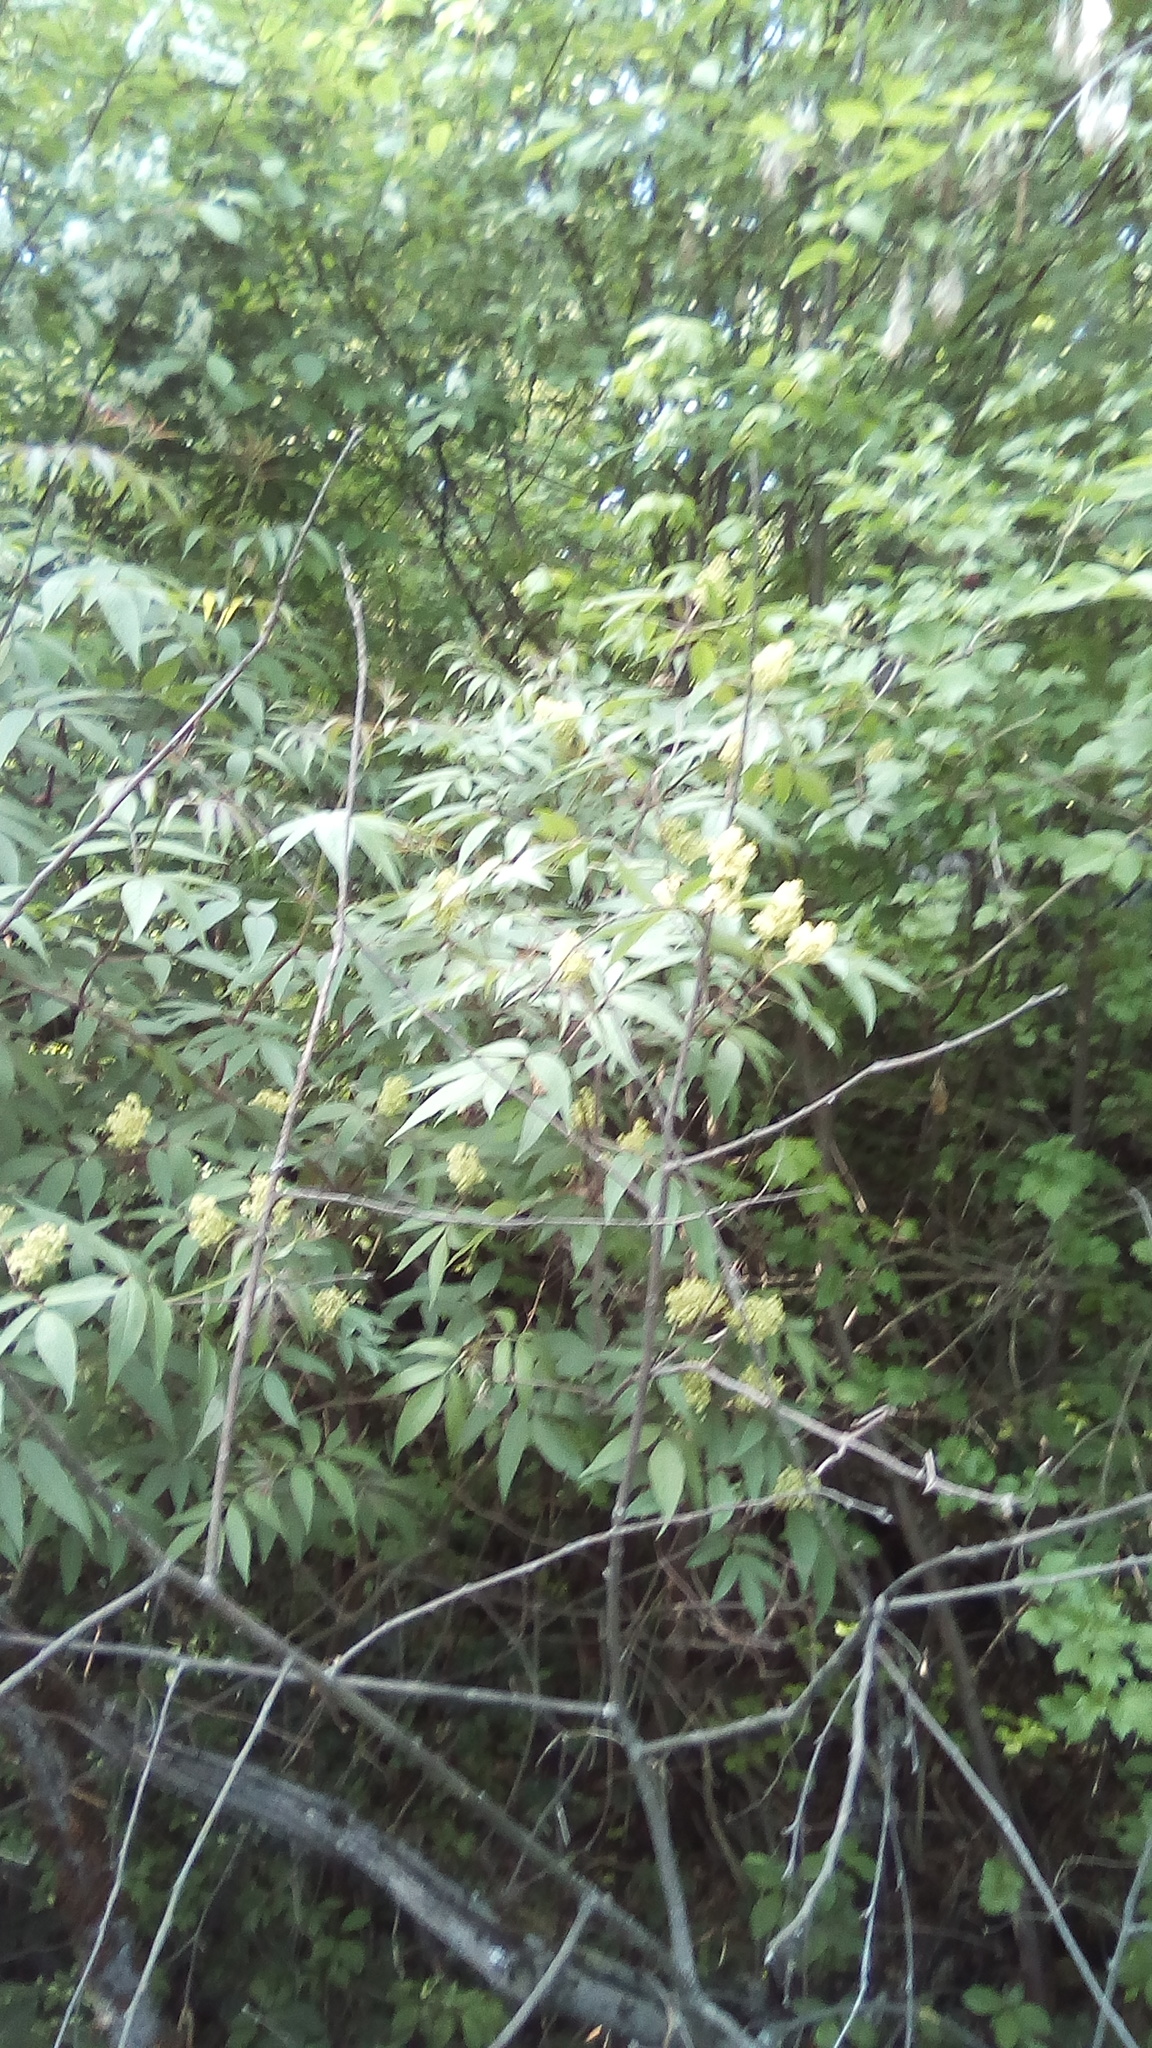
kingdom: Plantae
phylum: Tracheophyta
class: Magnoliopsida
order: Dipsacales
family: Viburnaceae
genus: Sambucus
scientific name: Sambucus racemosa
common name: Red-berried elder
